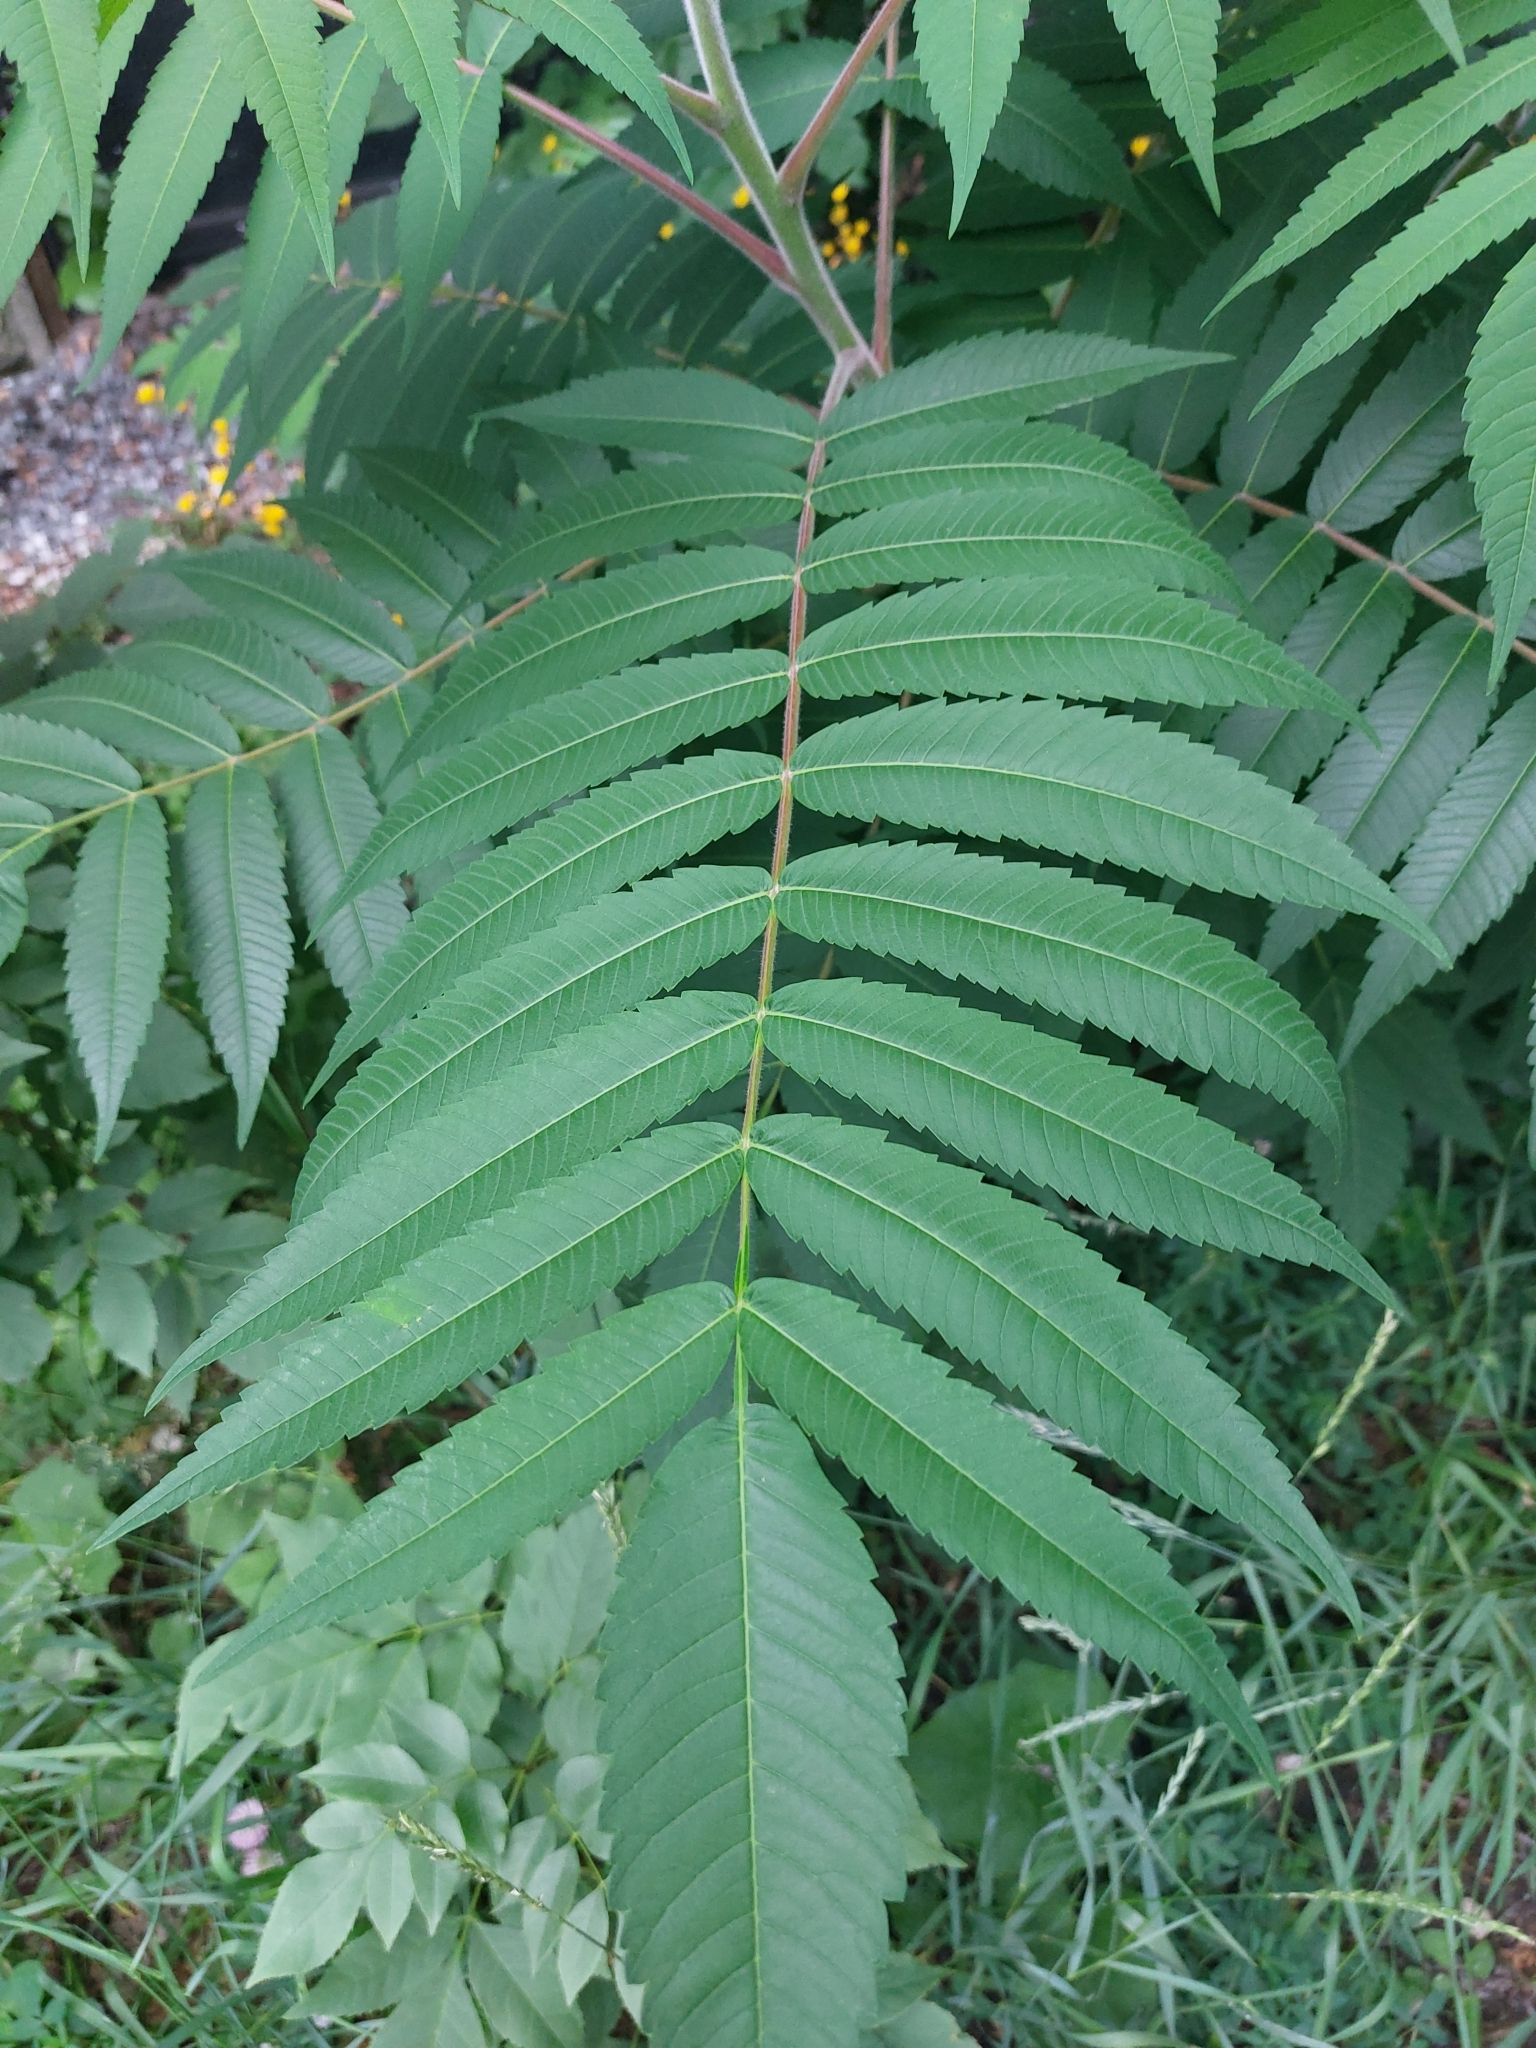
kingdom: Plantae
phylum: Tracheophyta
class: Magnoliopsida
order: Sapindales
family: Anacardiaceae
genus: Rhus
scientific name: Rhus typhina
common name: Staghorn sumac
